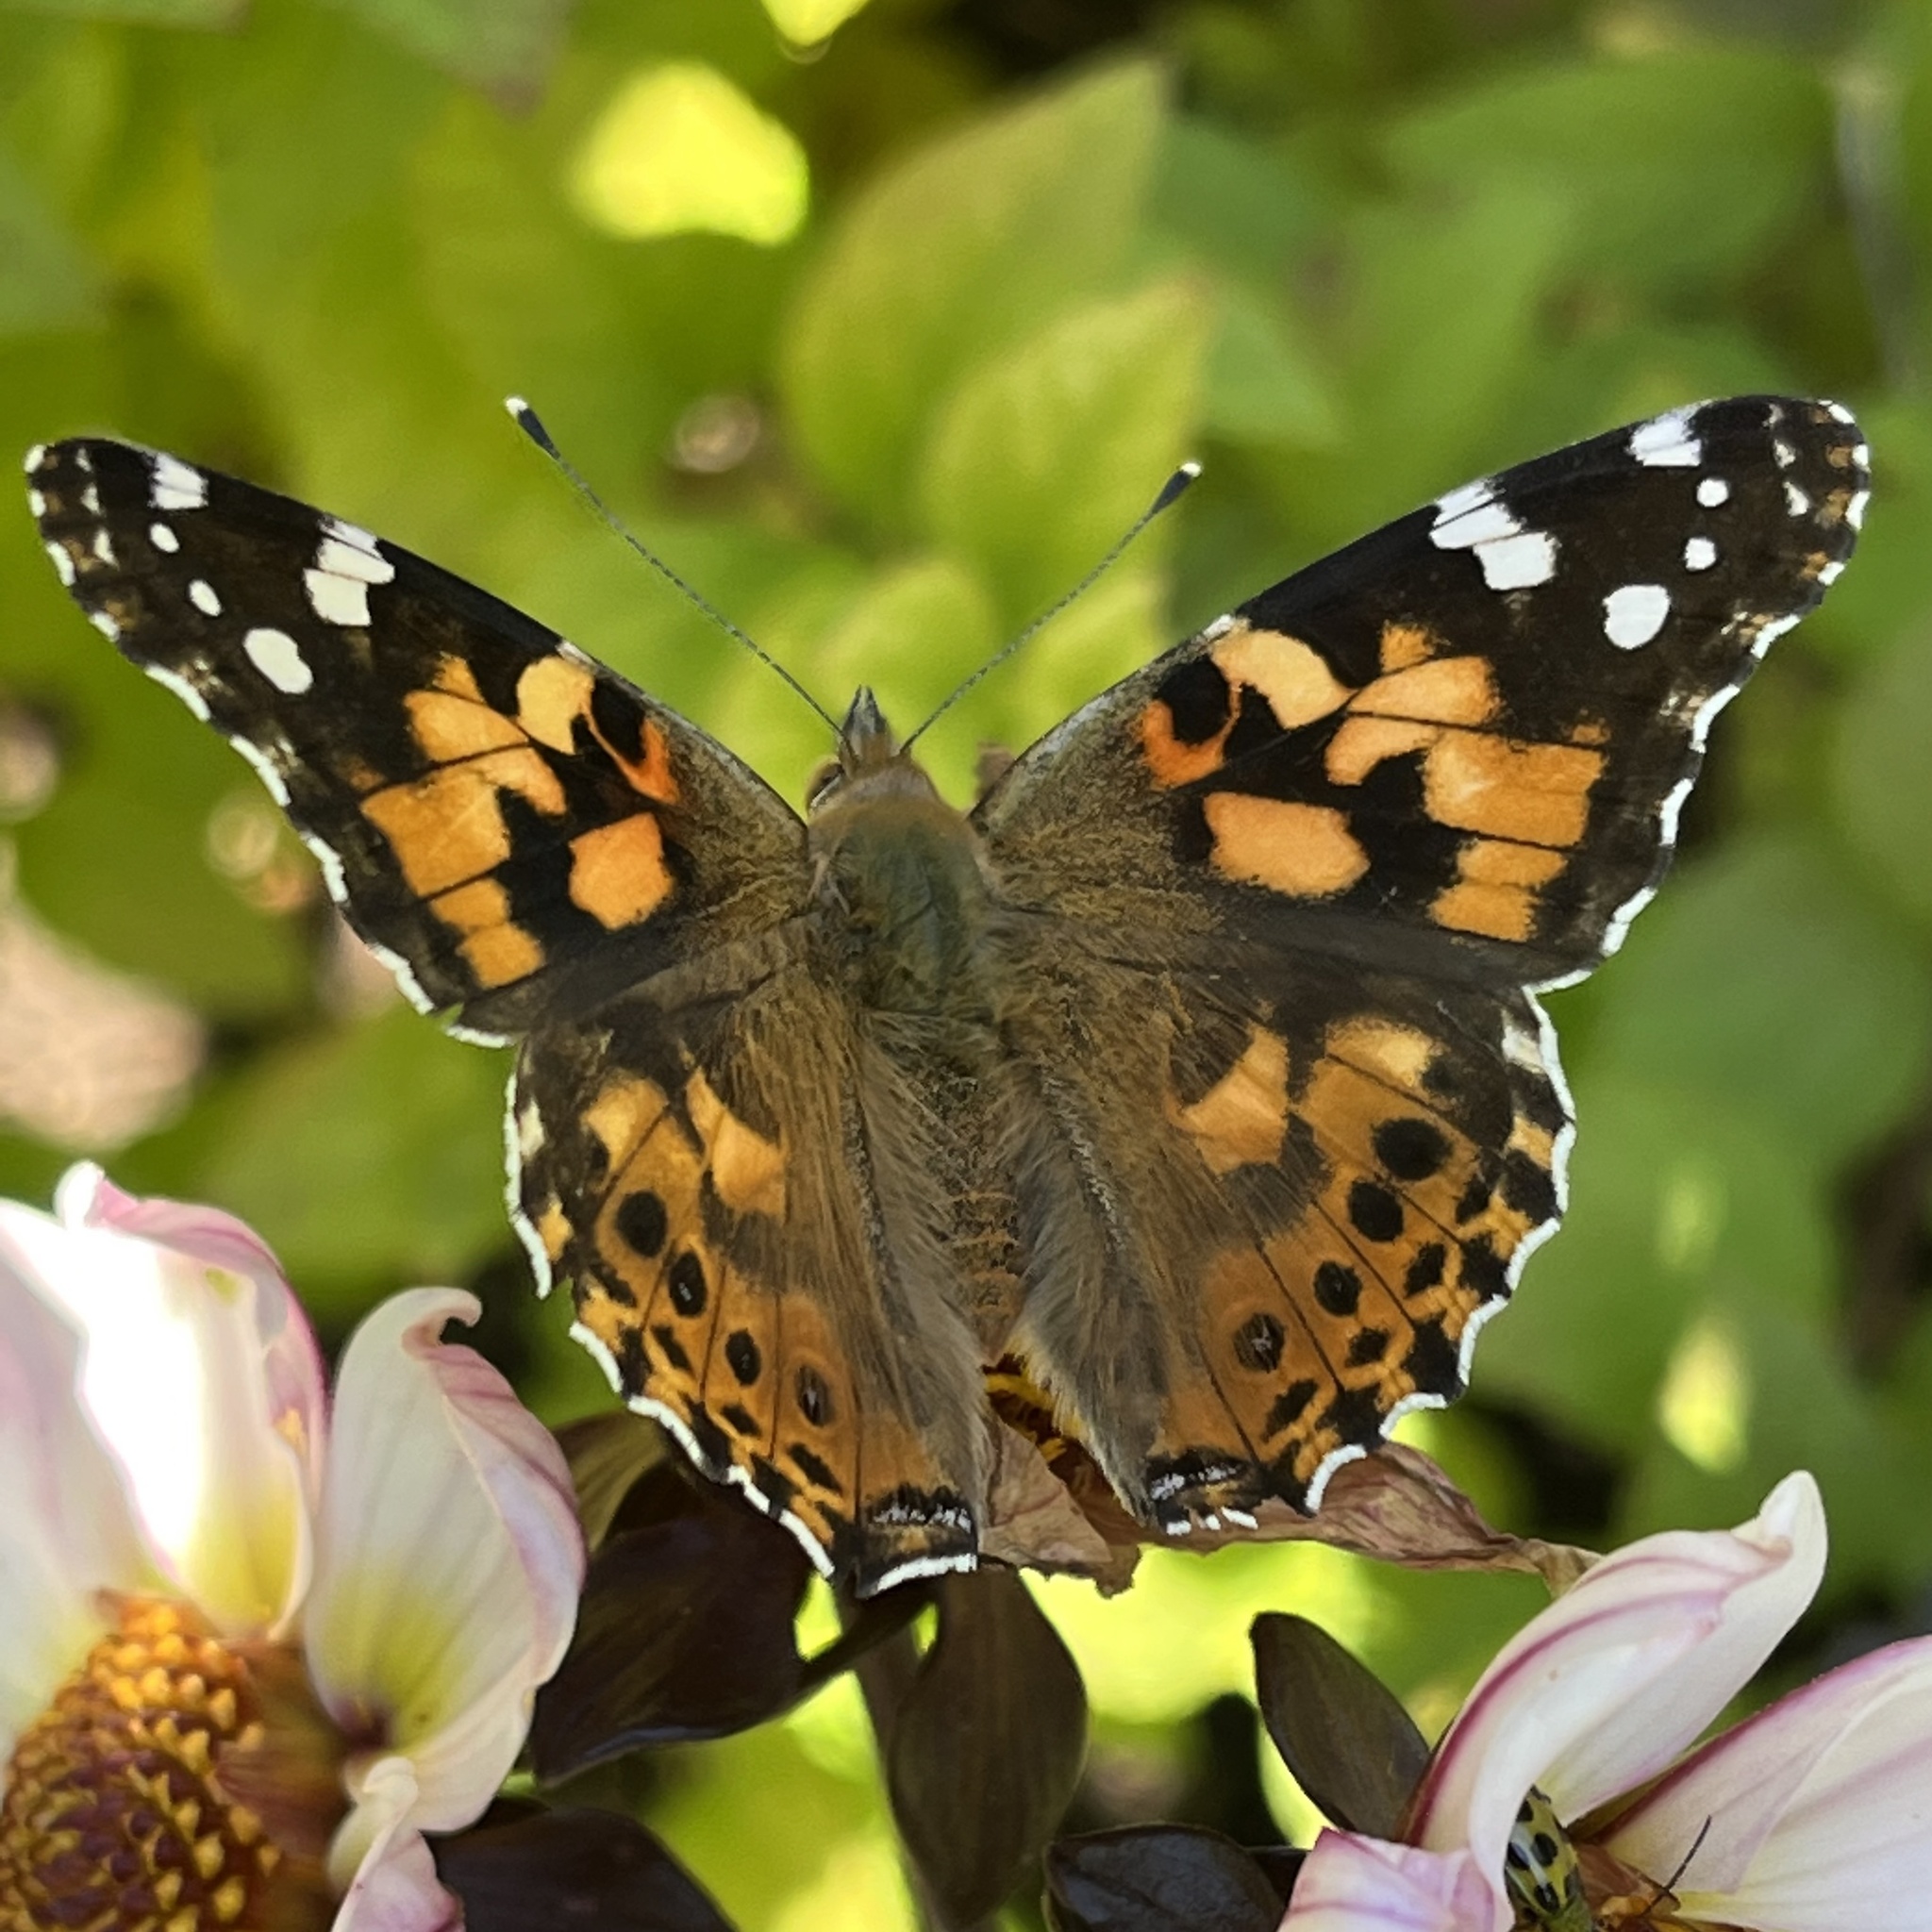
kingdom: Animalia
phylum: Arthropoda
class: Insecta
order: Lepidoptera
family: Nymphalidae
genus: Vanessa
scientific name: Vanessa cardui
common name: Painted lady
